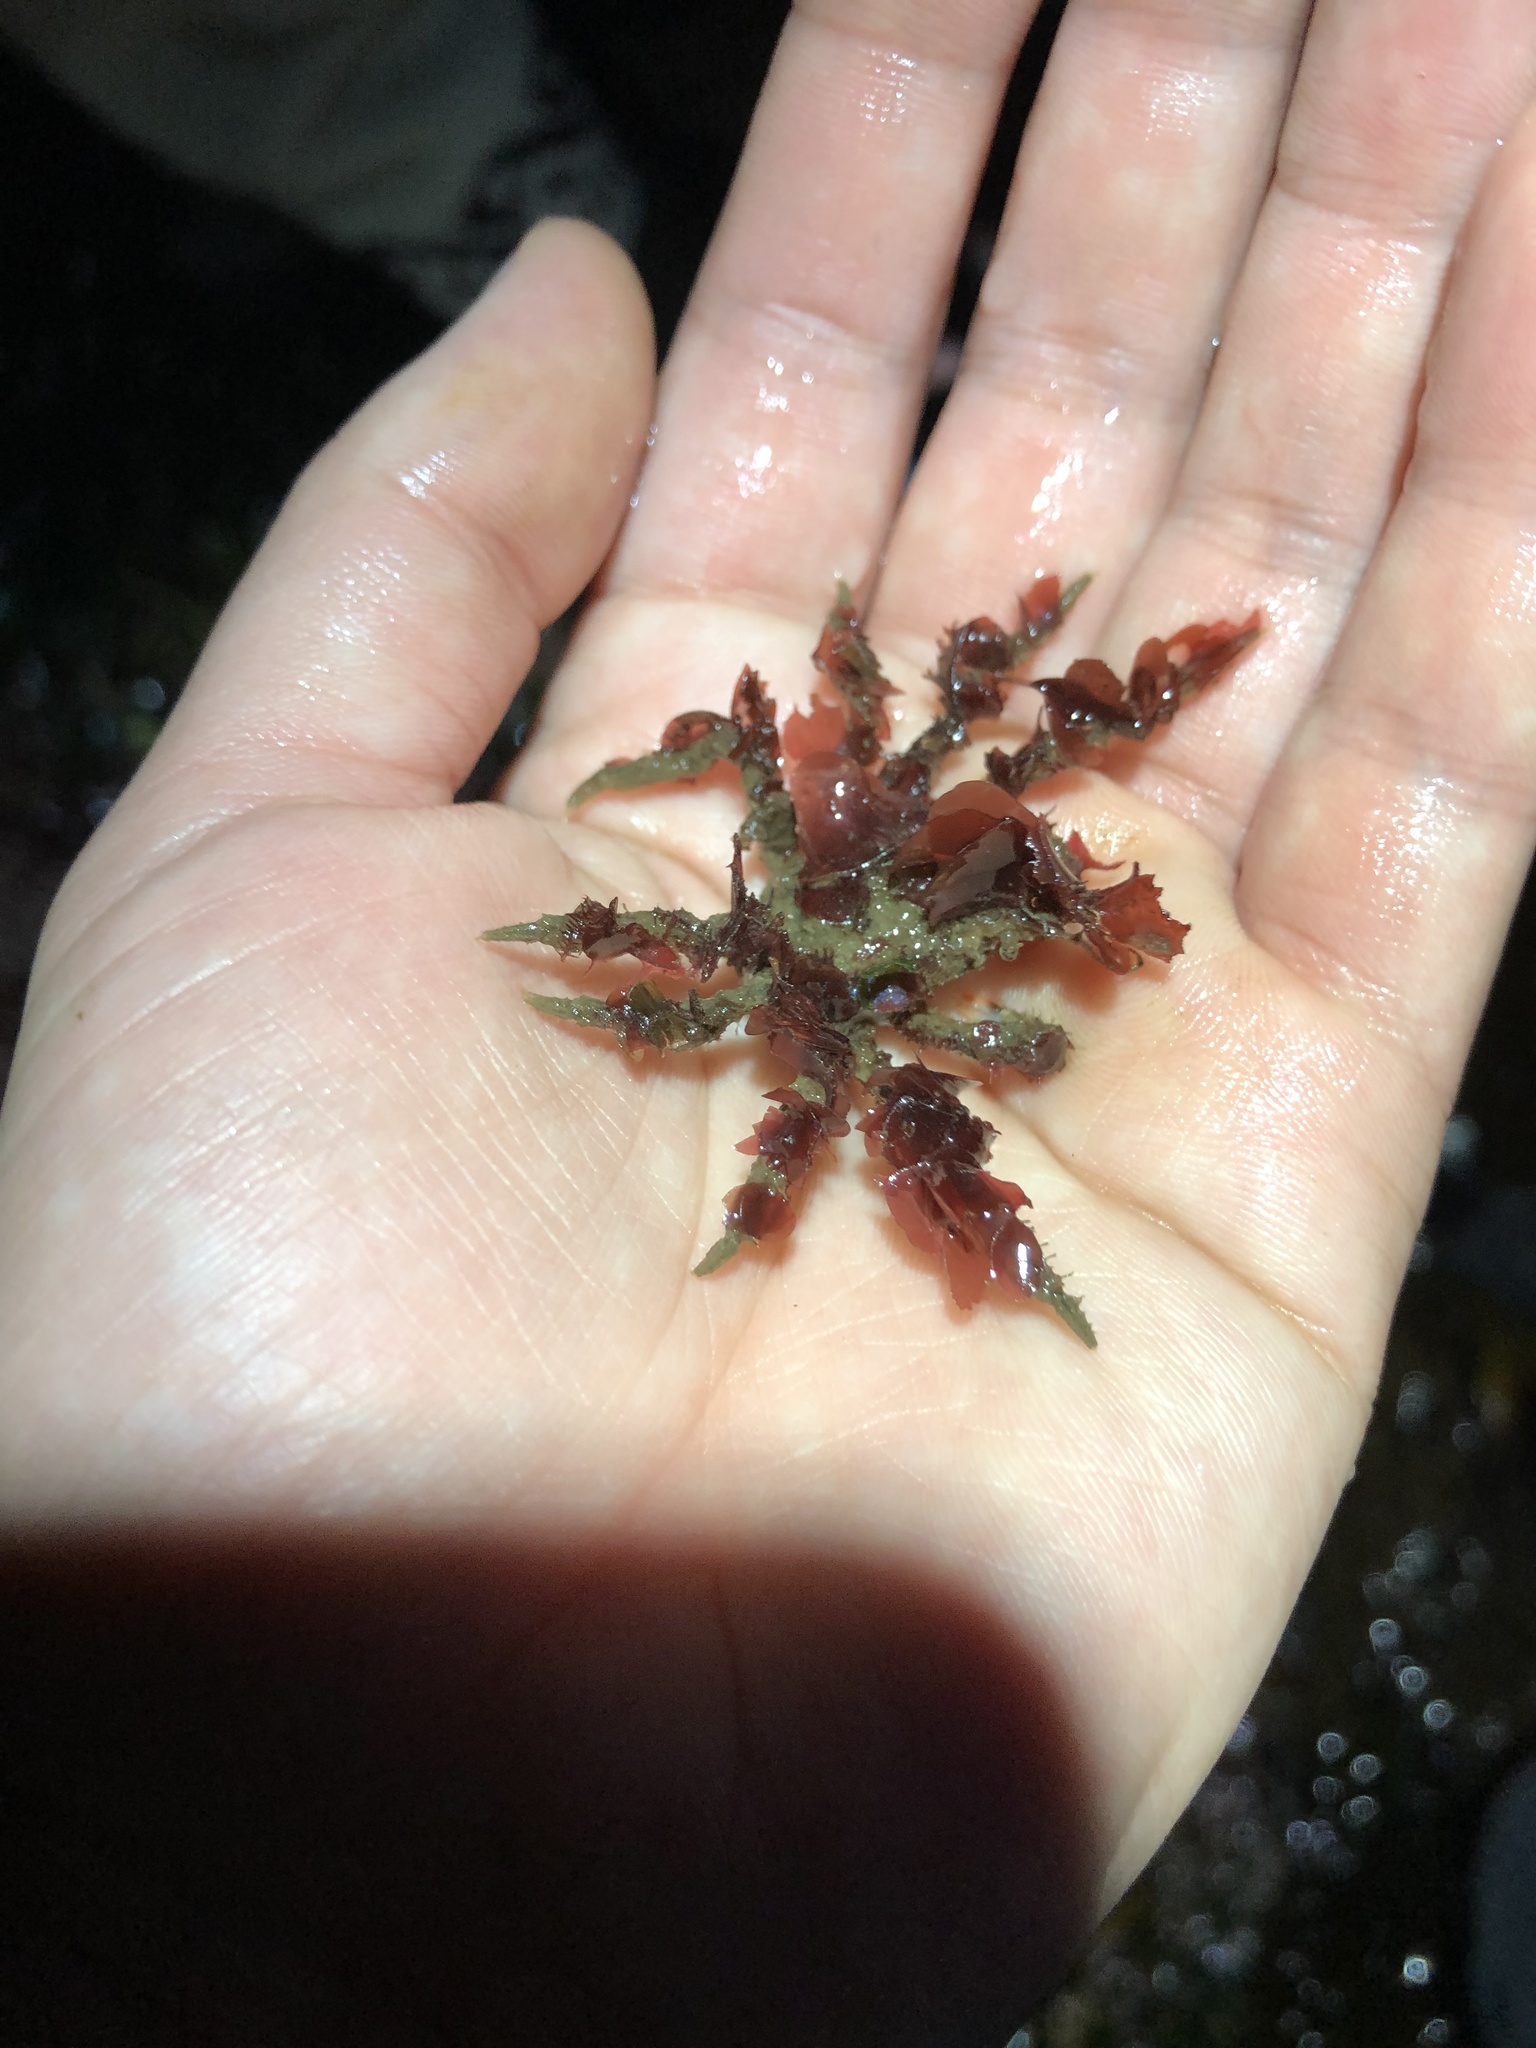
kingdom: Animalia
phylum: Arthropoda
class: Malacostraca
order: Decapoda
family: Oregoniidae
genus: Oregonia
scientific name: Oregonia gracilis
